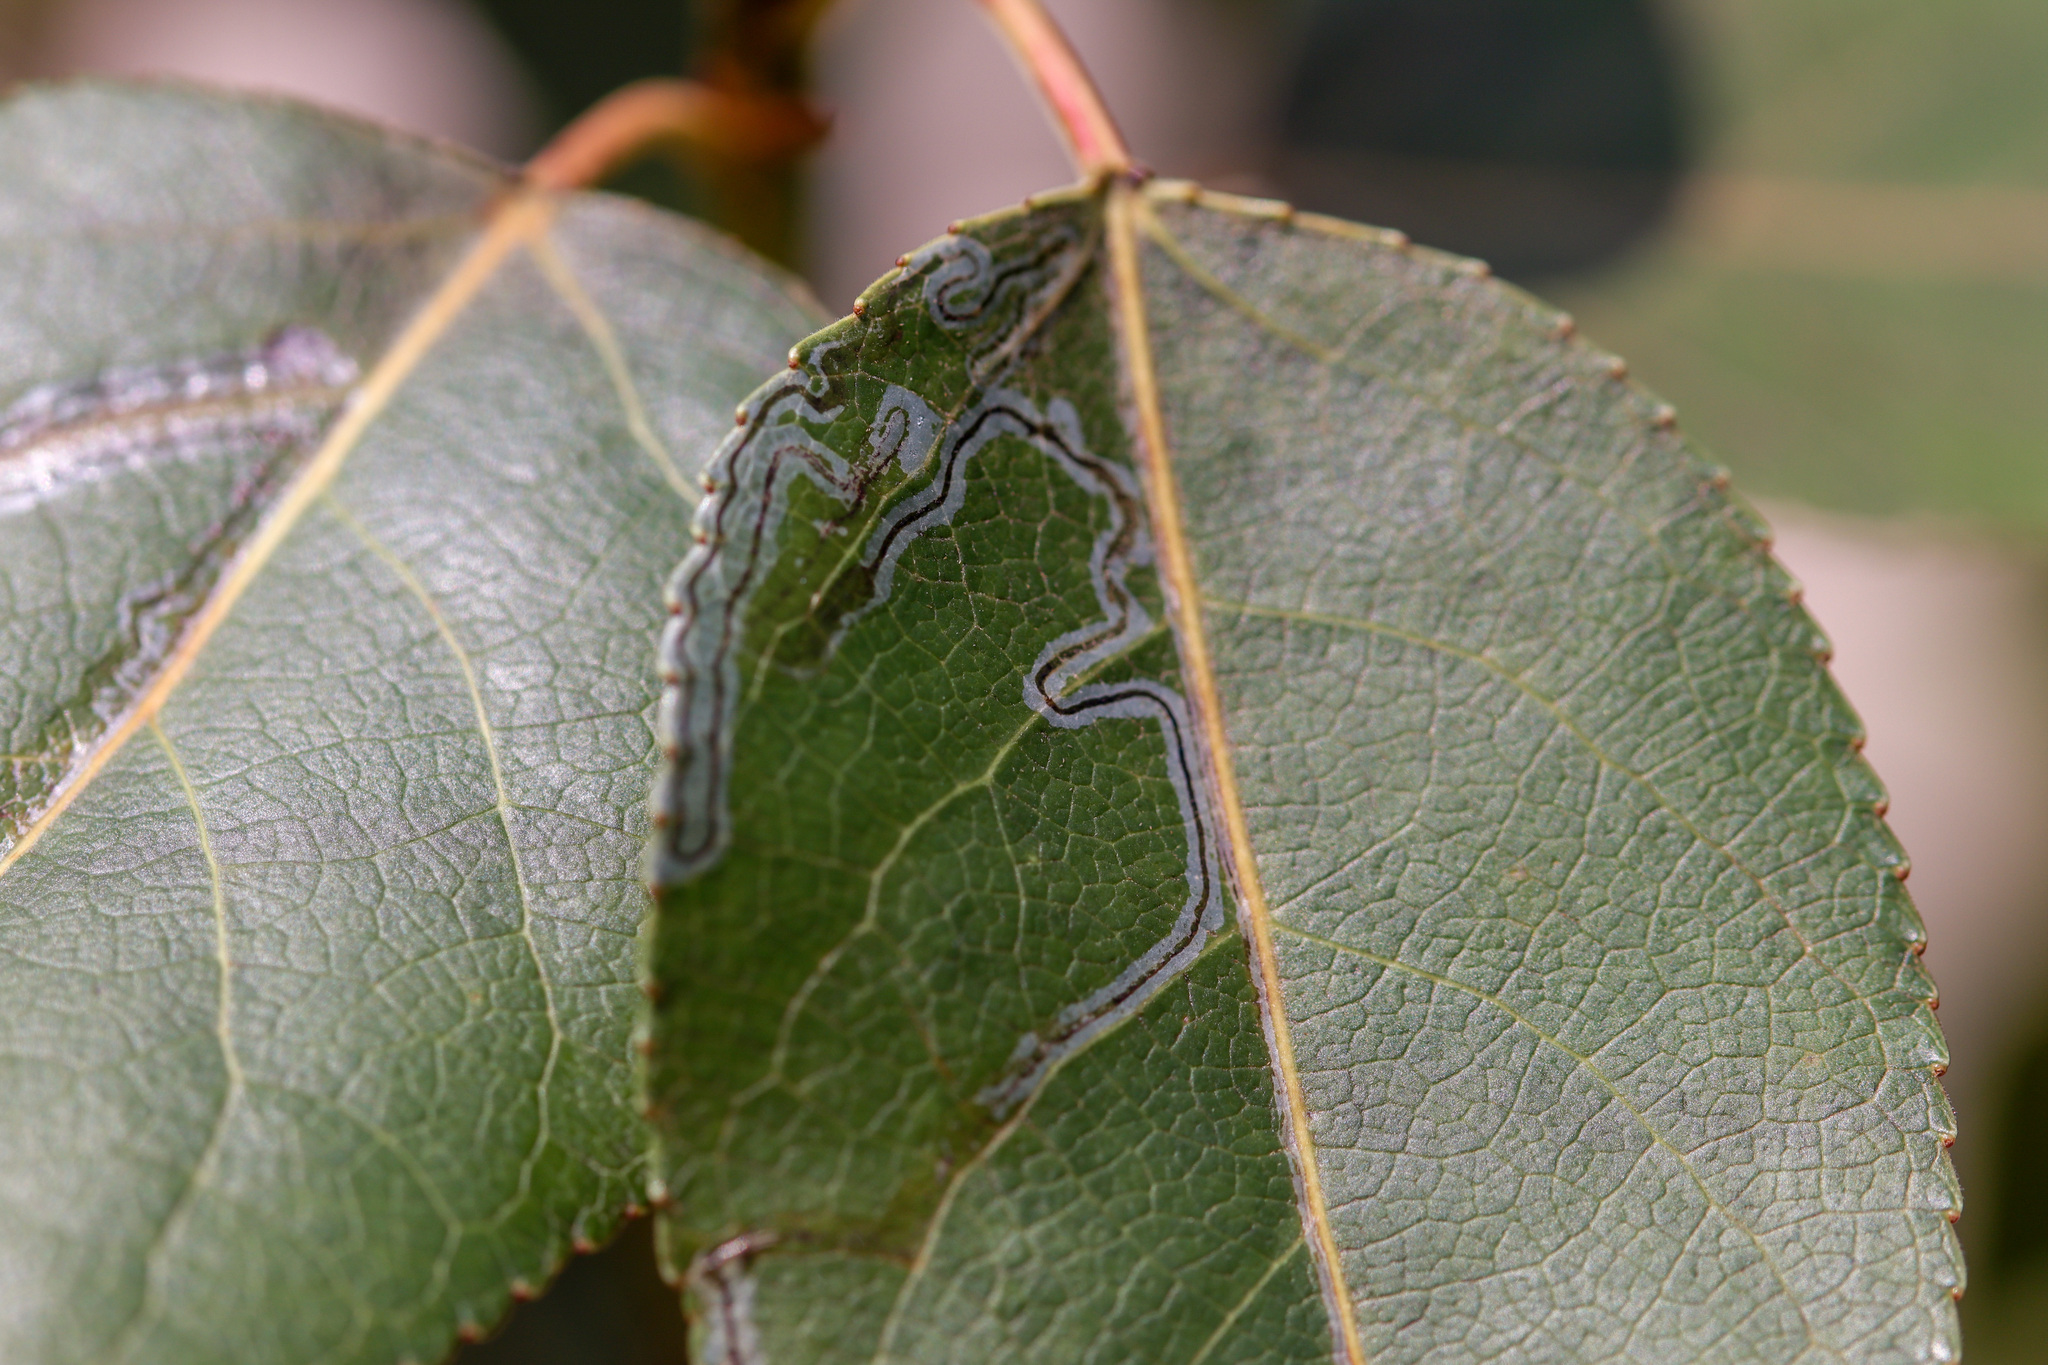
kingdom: Animalia
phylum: Arthropoda
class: Insecta
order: Lepidoptera
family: Gracillariidae
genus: Phyllocnistis
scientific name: Phyllocnistis populiella
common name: Aspen serpentine leafminer moth
